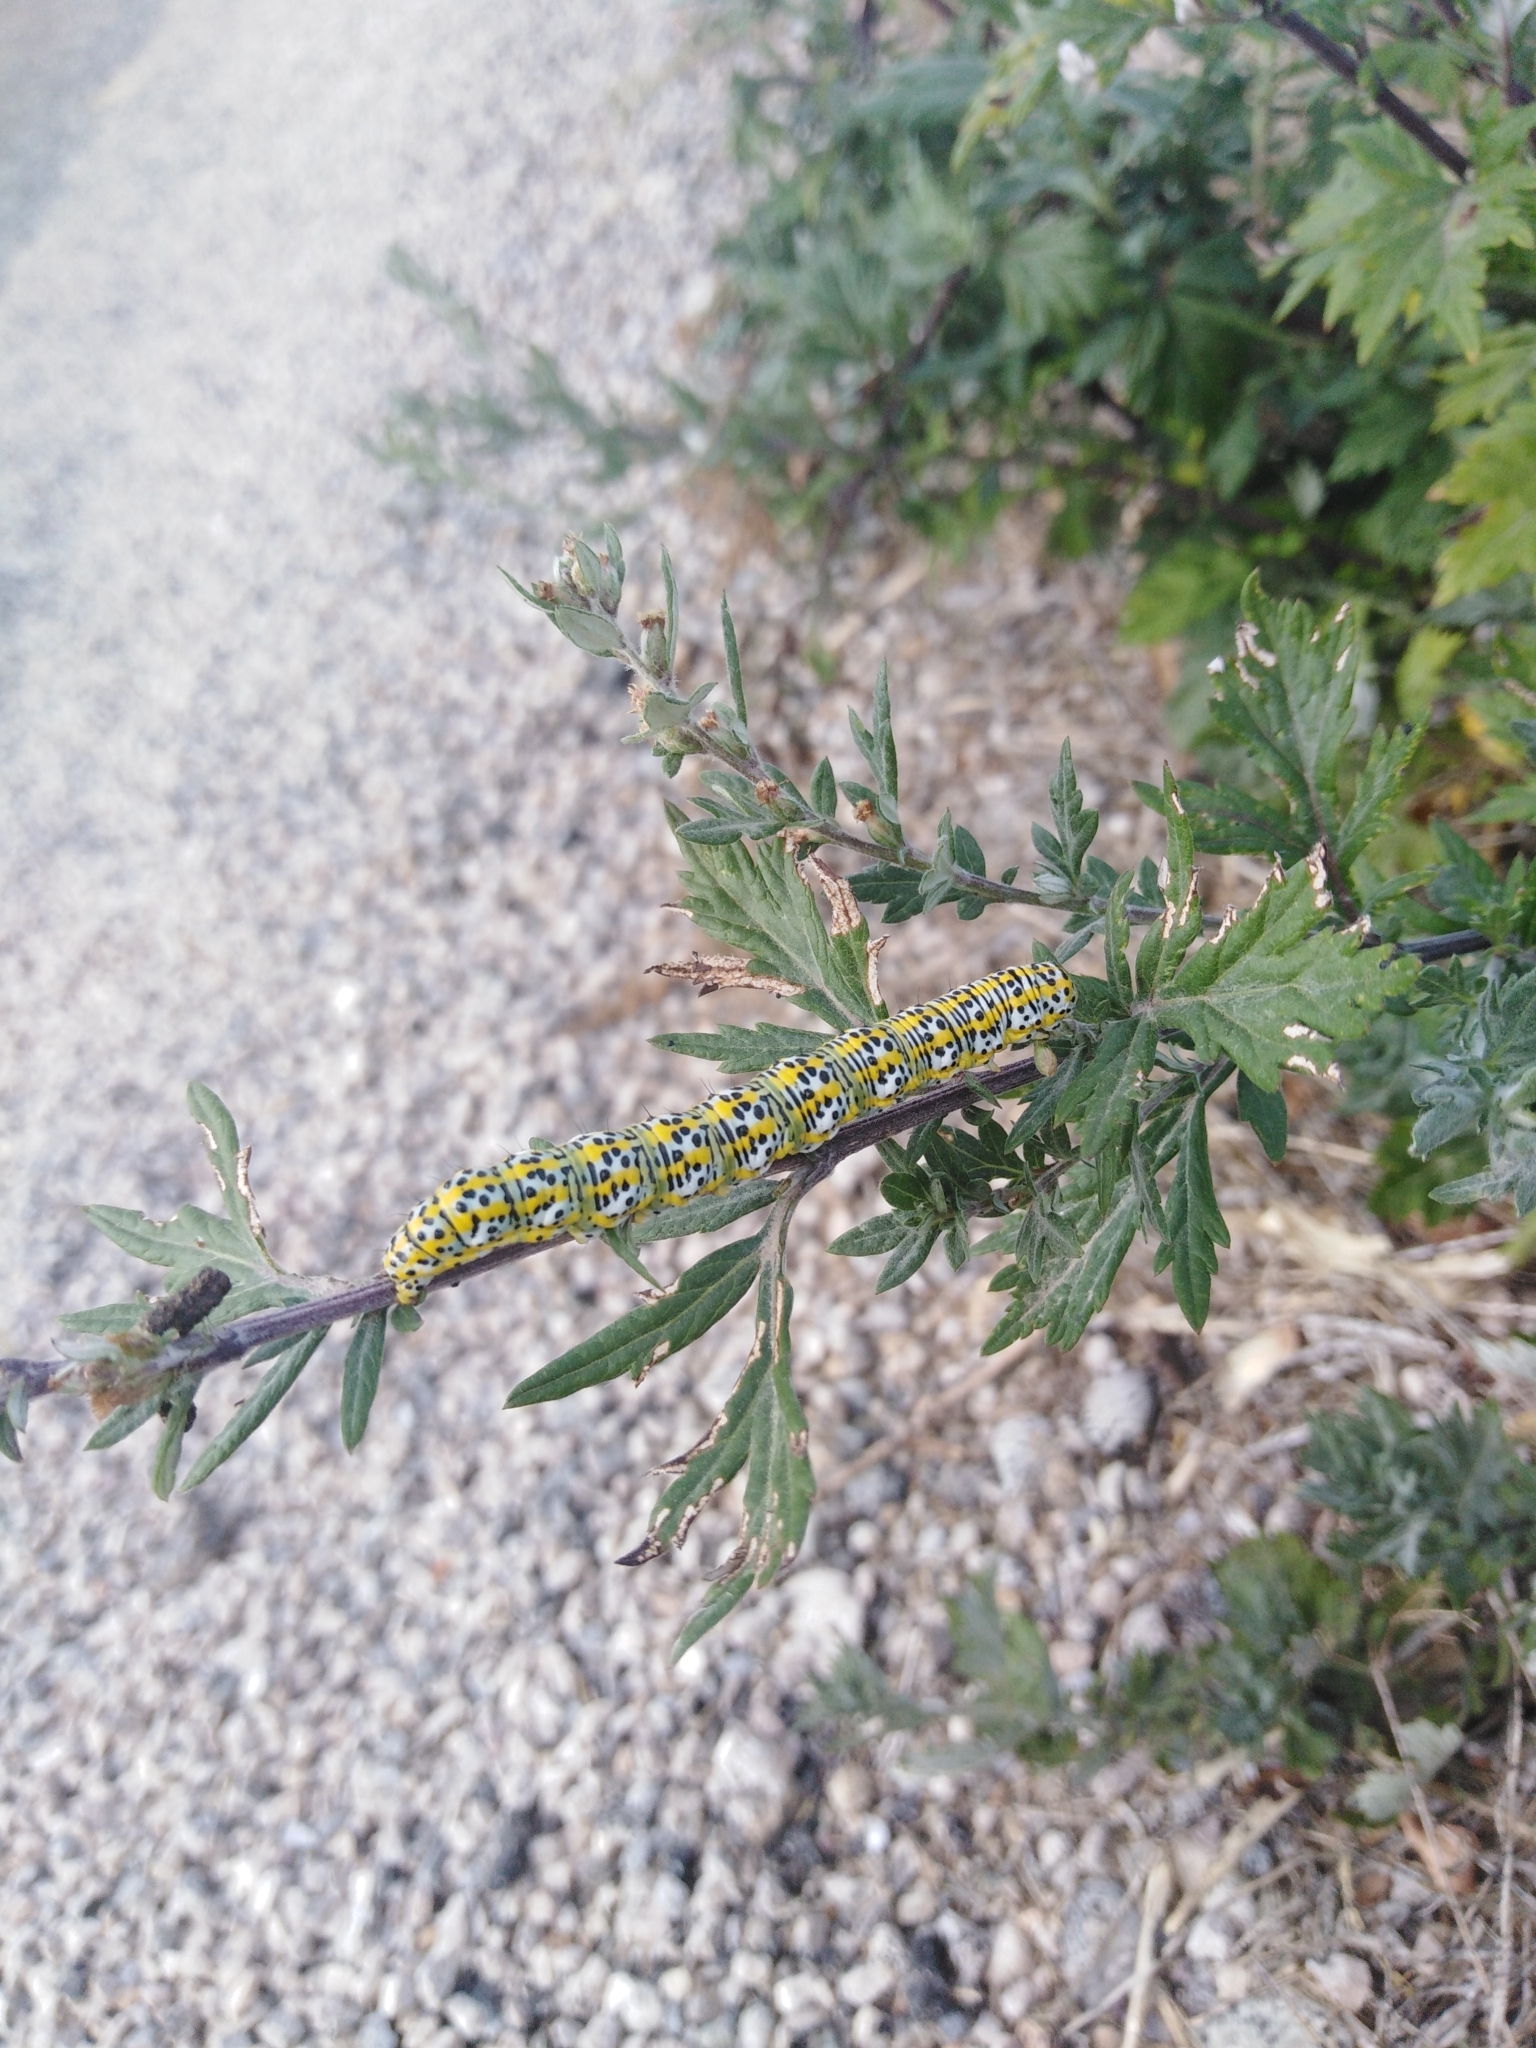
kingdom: Animalia
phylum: Arthropoda
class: Insecta
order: Lepidoptera
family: Noctuidae
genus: Cucullia
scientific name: Cucullia verbasci
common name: Mullein
